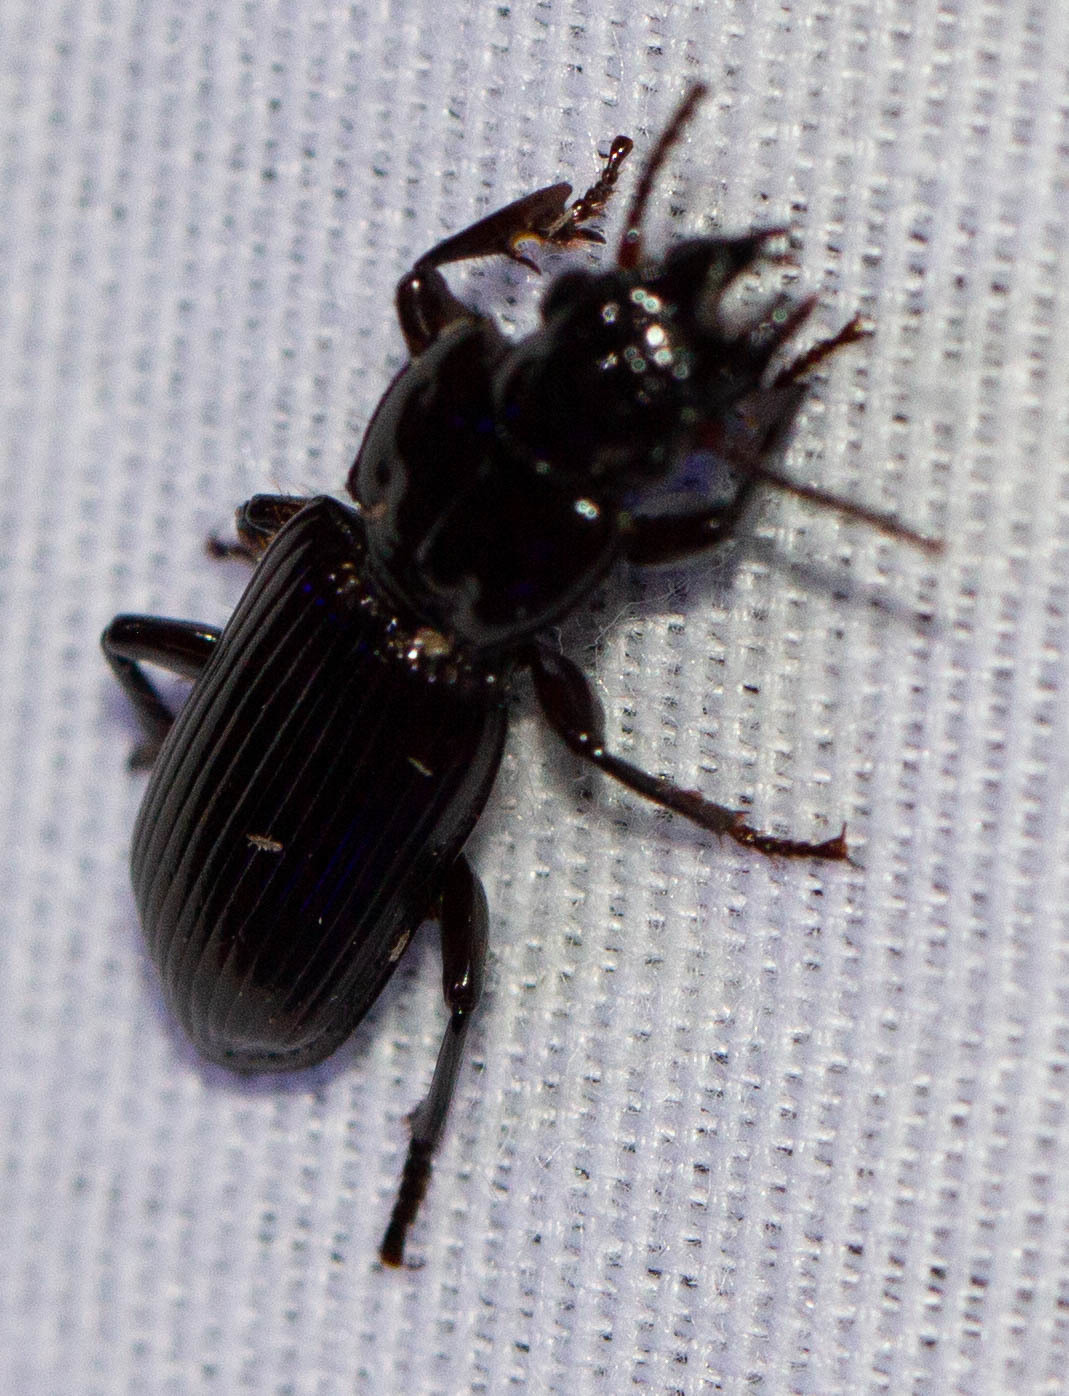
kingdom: Animalia
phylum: Arthropoda
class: Insecta
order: Coleoptera
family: Carabidae
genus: Morion
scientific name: Morion monilicornis
